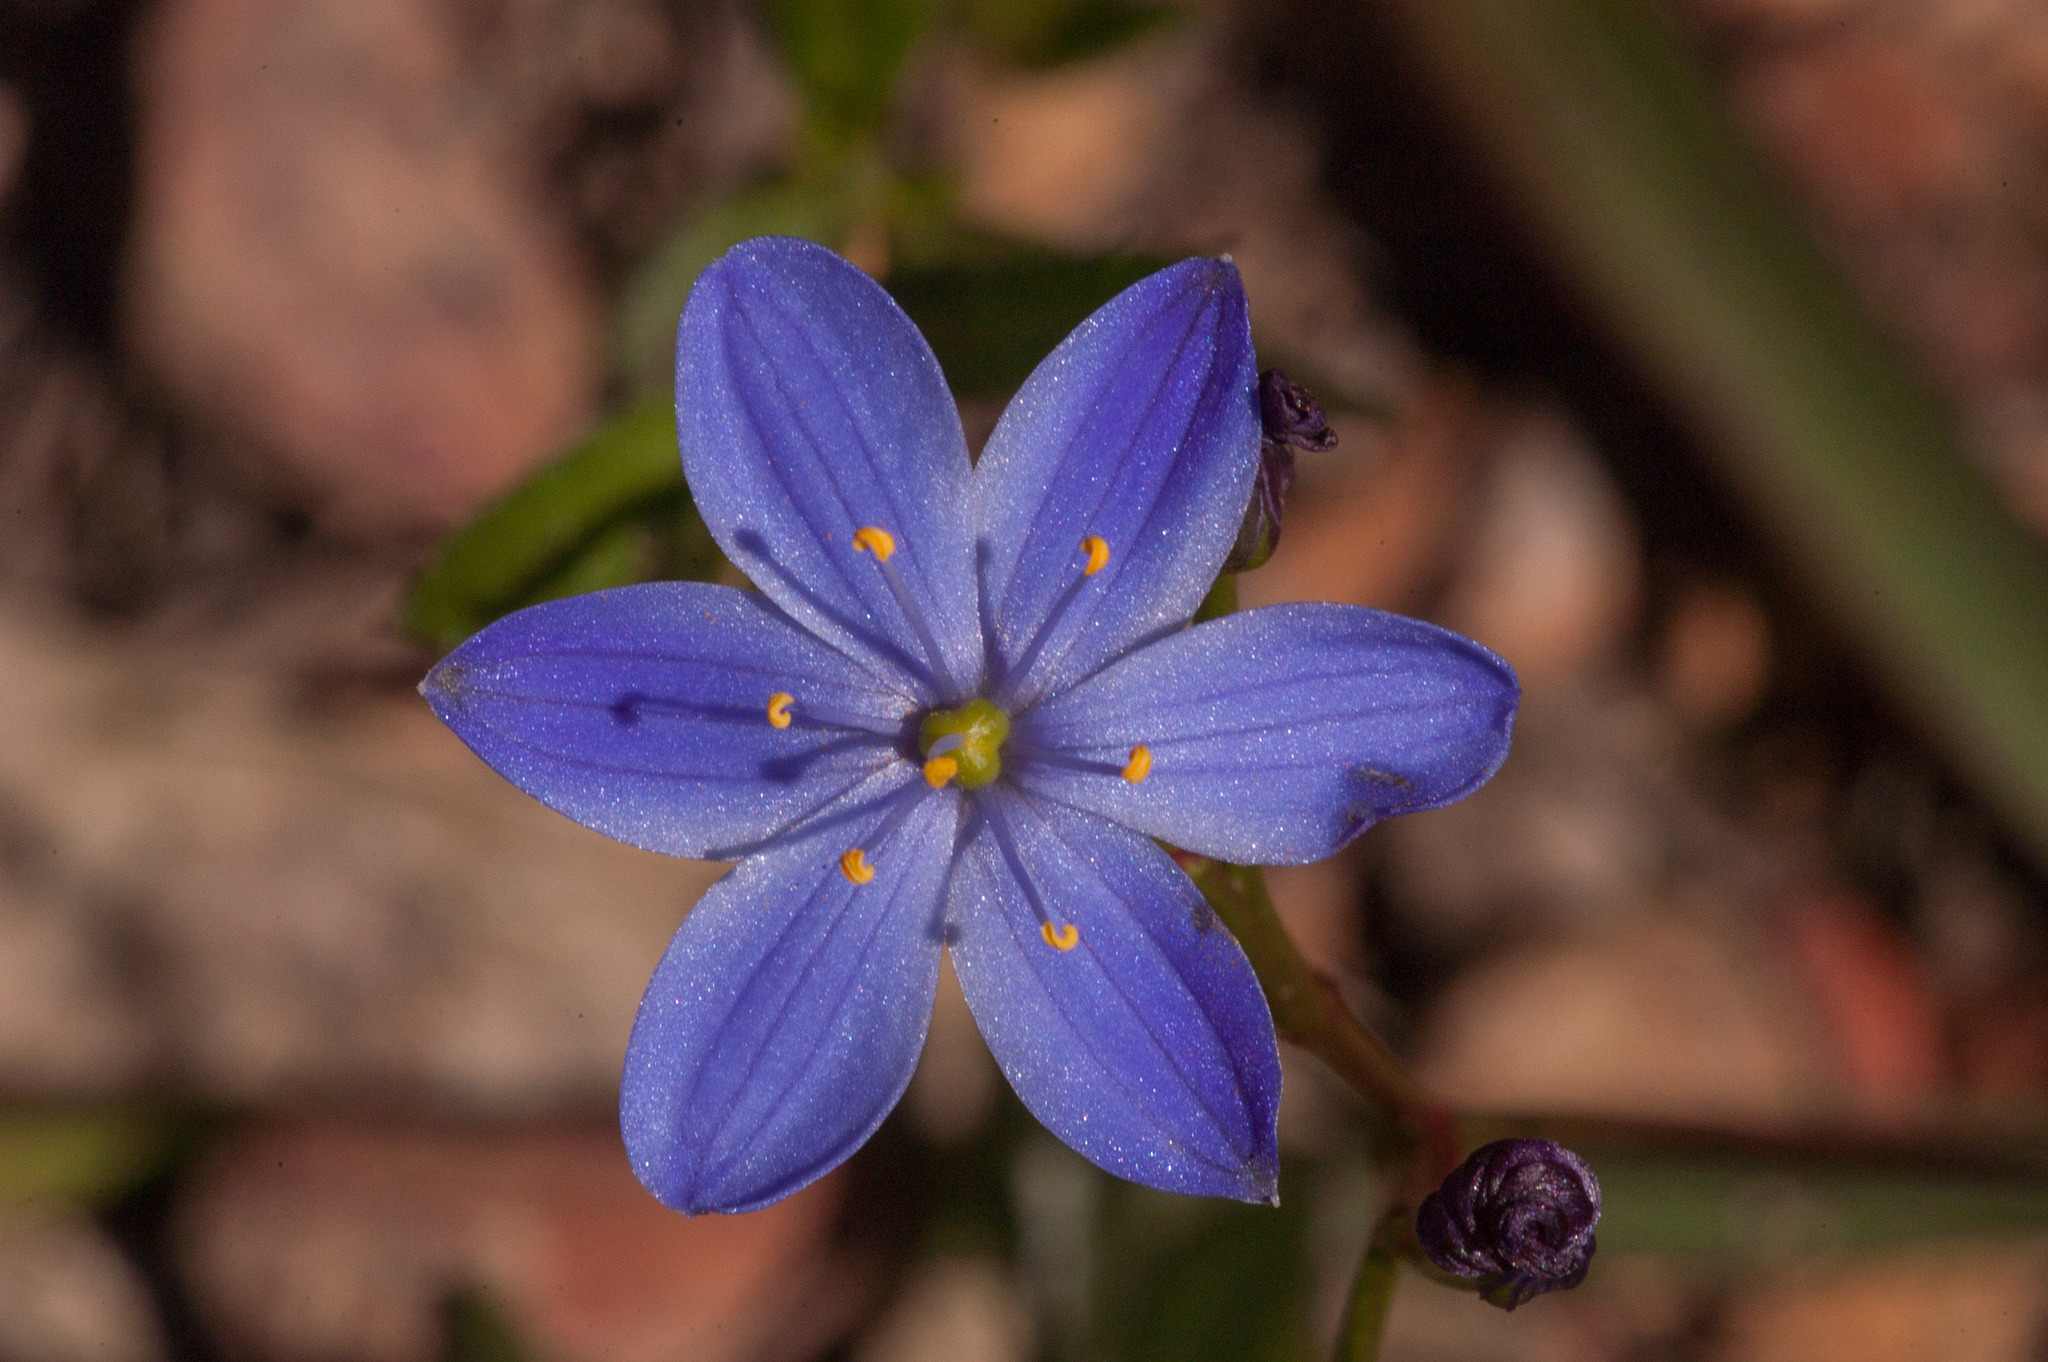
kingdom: Plantae
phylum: Tracheophyta
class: Liliopsida
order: Asparagales
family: Asphodelaceae
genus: Chamaescilla
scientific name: Chamaescilla corymbosa
